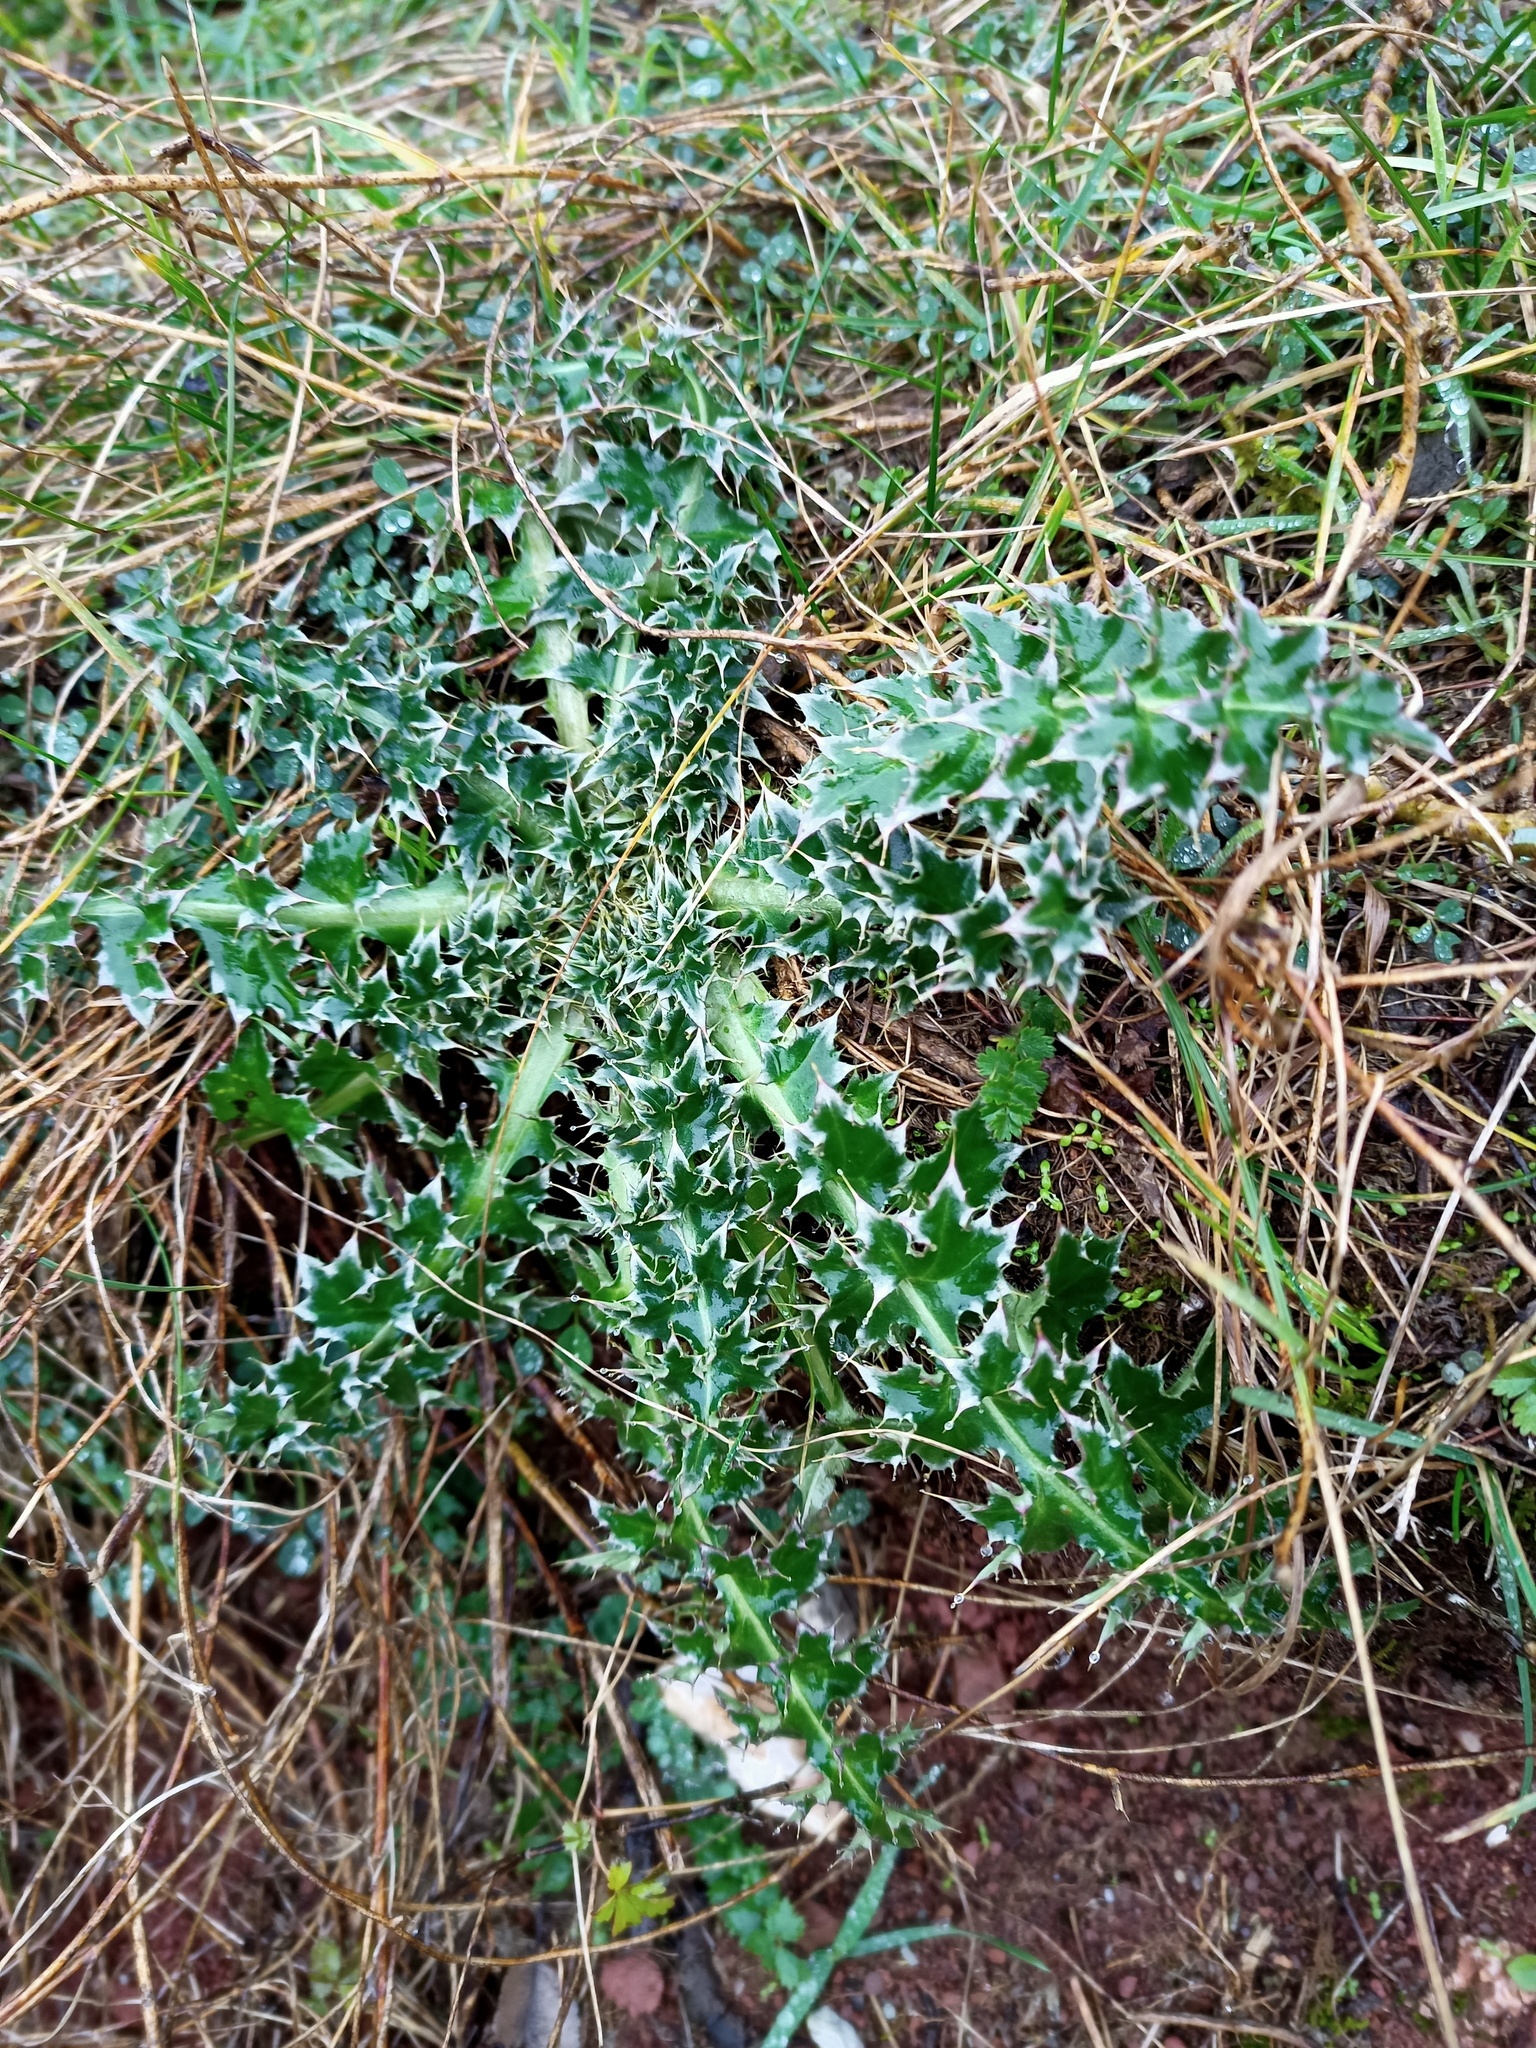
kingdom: Plantae
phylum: Tracheophyta
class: Magnoliopsida
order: Asterales
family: Asteraceae
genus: Carduus
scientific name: Carduus nutans
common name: Musk thistle
